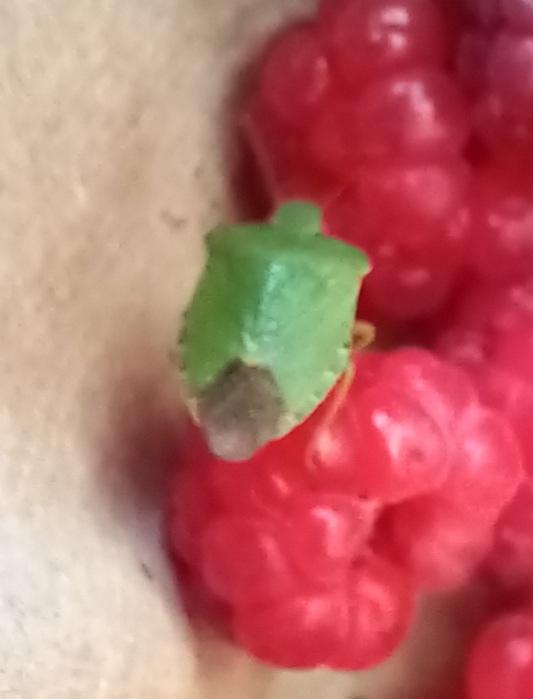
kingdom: Animalia
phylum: Arthropoda
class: Insecta
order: Hemiptera
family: Pentatomidae
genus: Palomena
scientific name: Palomena prasina
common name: Green shieldbug
